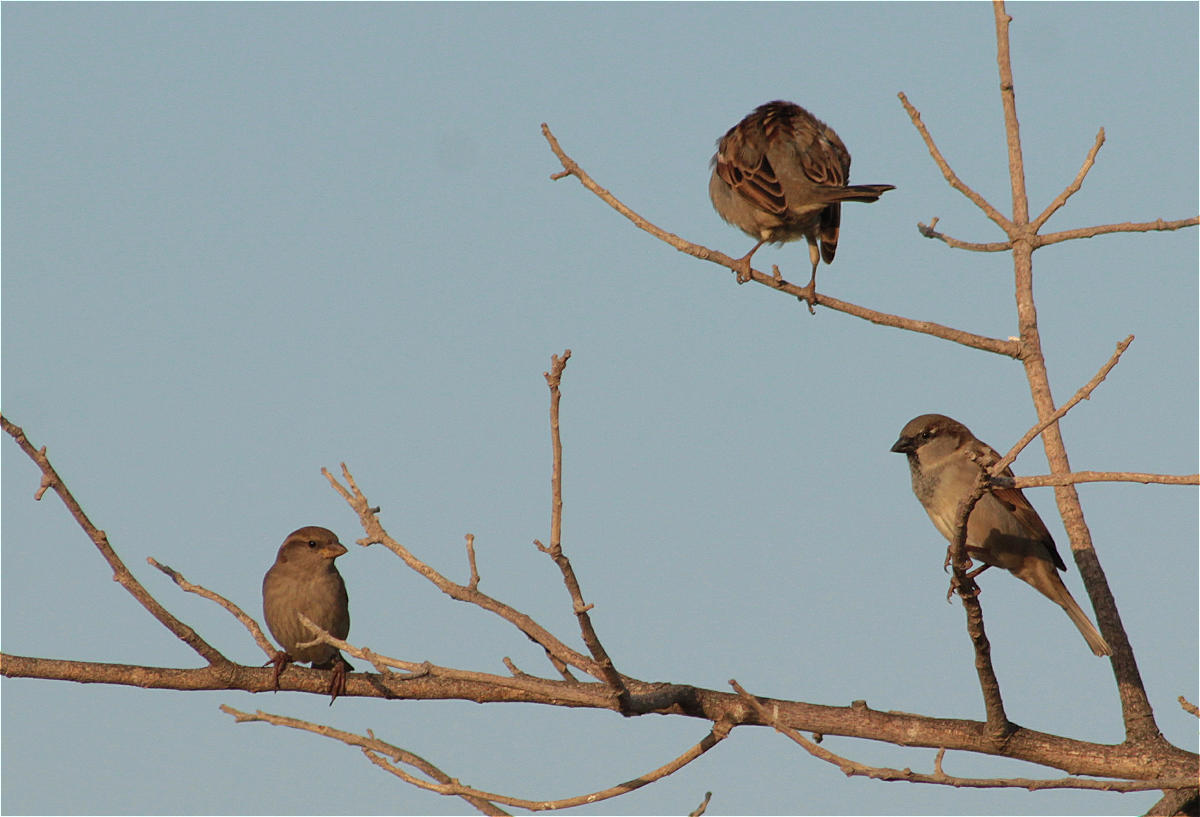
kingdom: Animalia
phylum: Chordata
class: Aves
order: Passeriformes
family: Passeridae
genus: Passer
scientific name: Passer domesticus
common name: House sparrow
